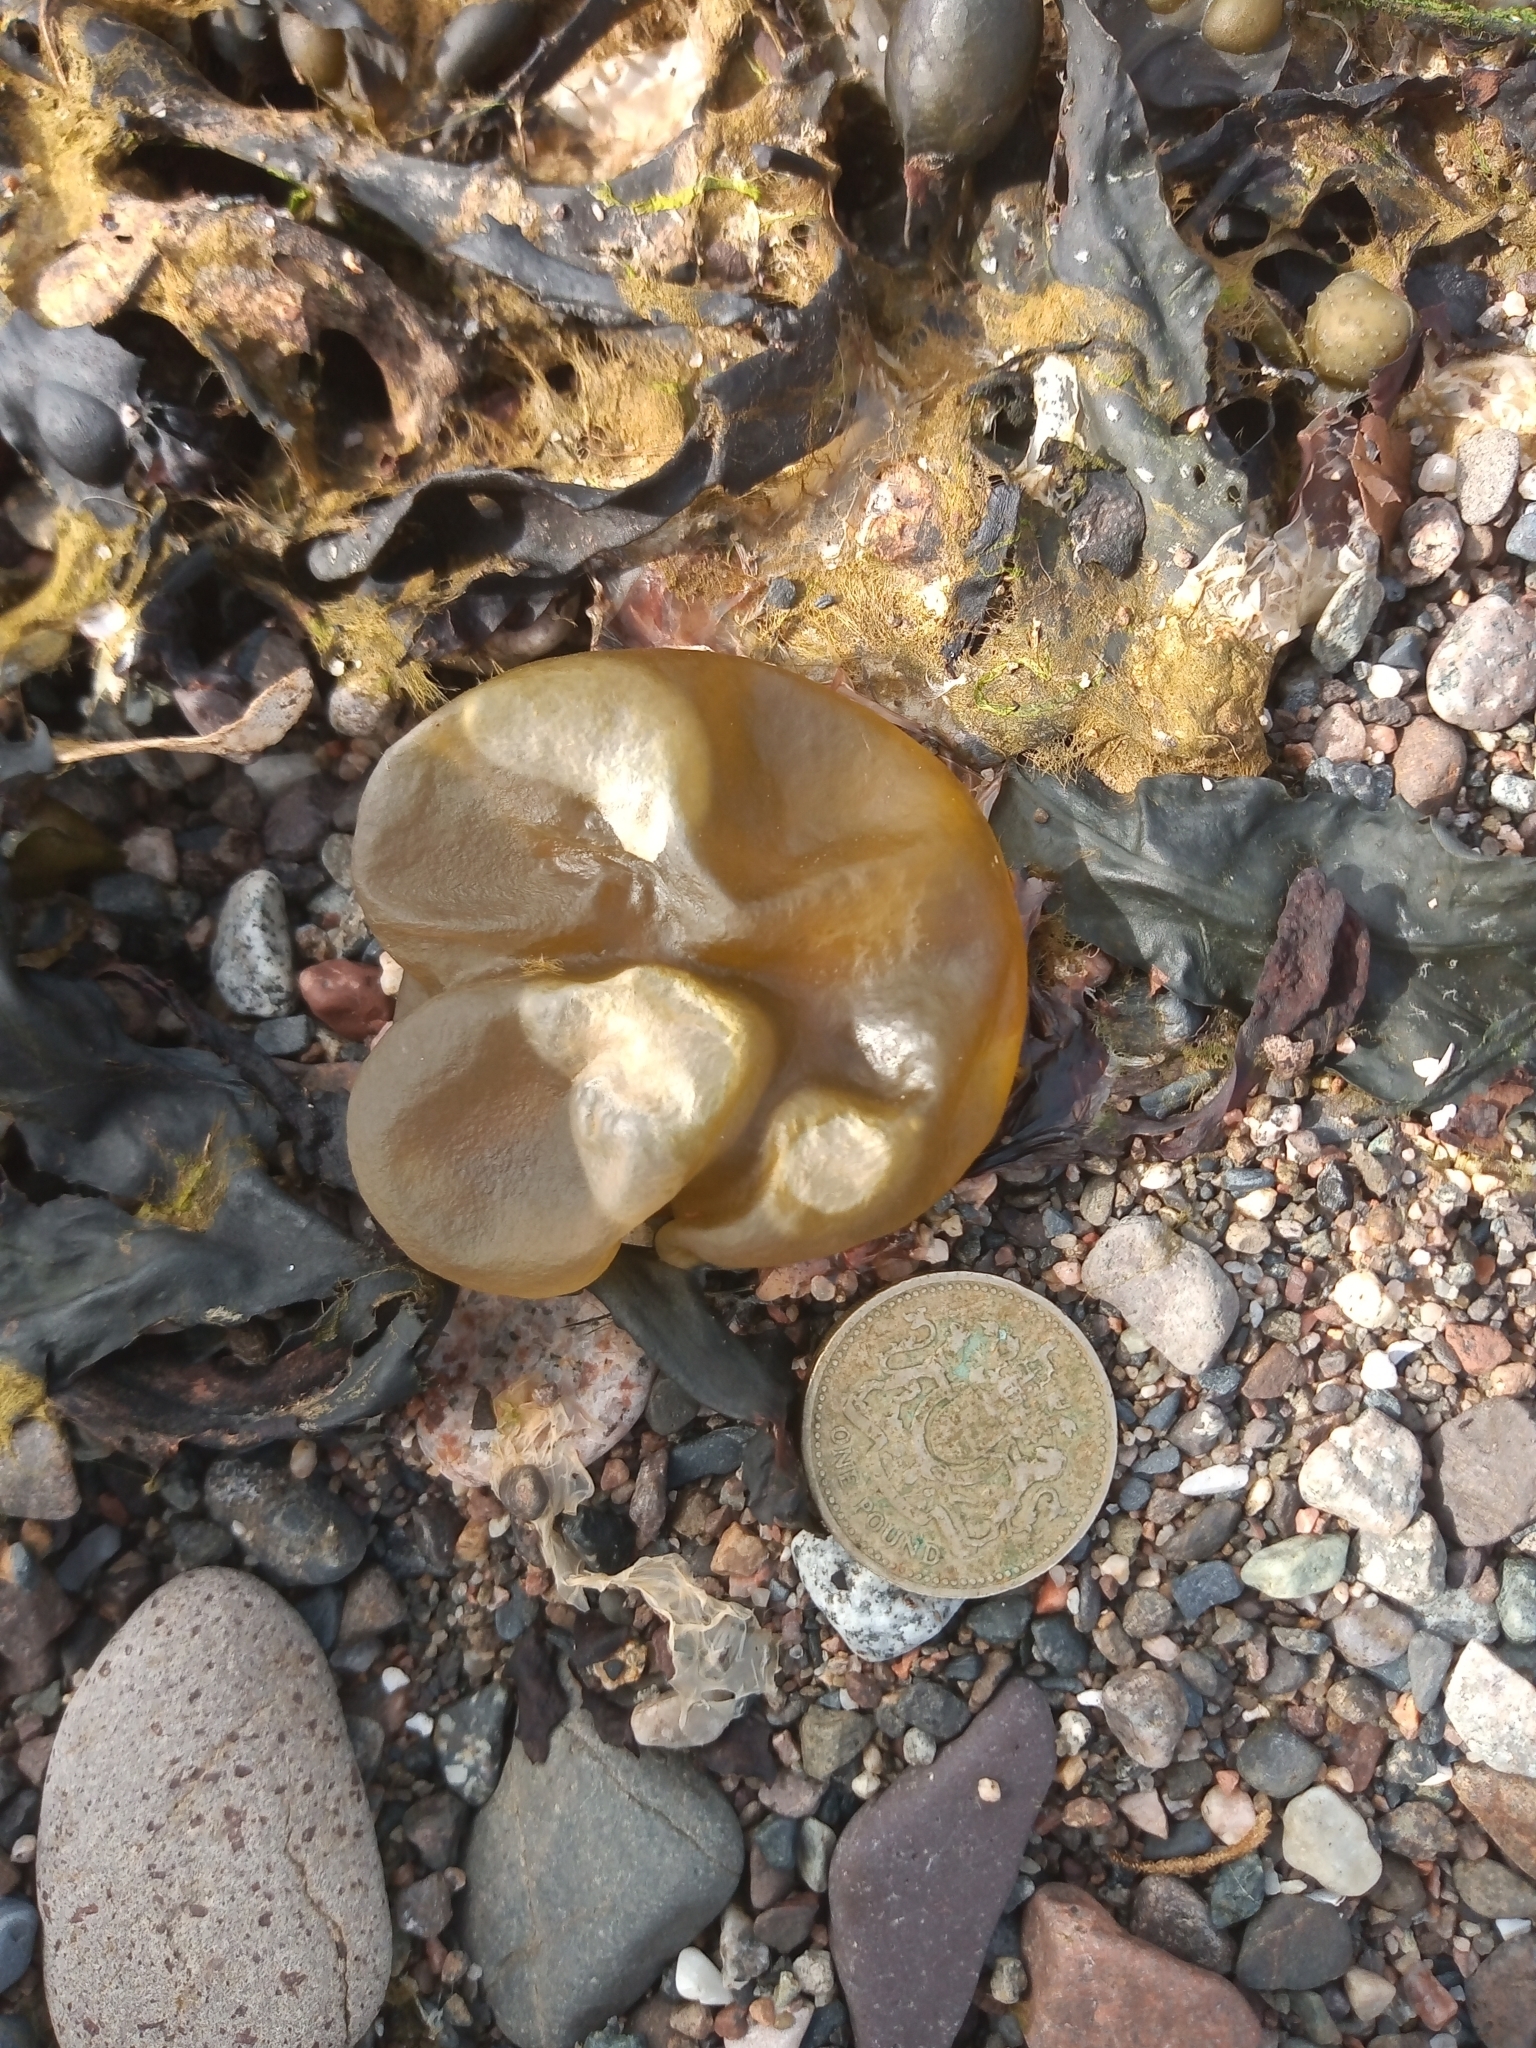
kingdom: Chromista
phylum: Ochrophyta
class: Phaeophyceae
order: Scytosiphonales
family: Scytosiphonaceae
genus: Colpomenia
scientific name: Colpomenia peregrina
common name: Oyster thief
